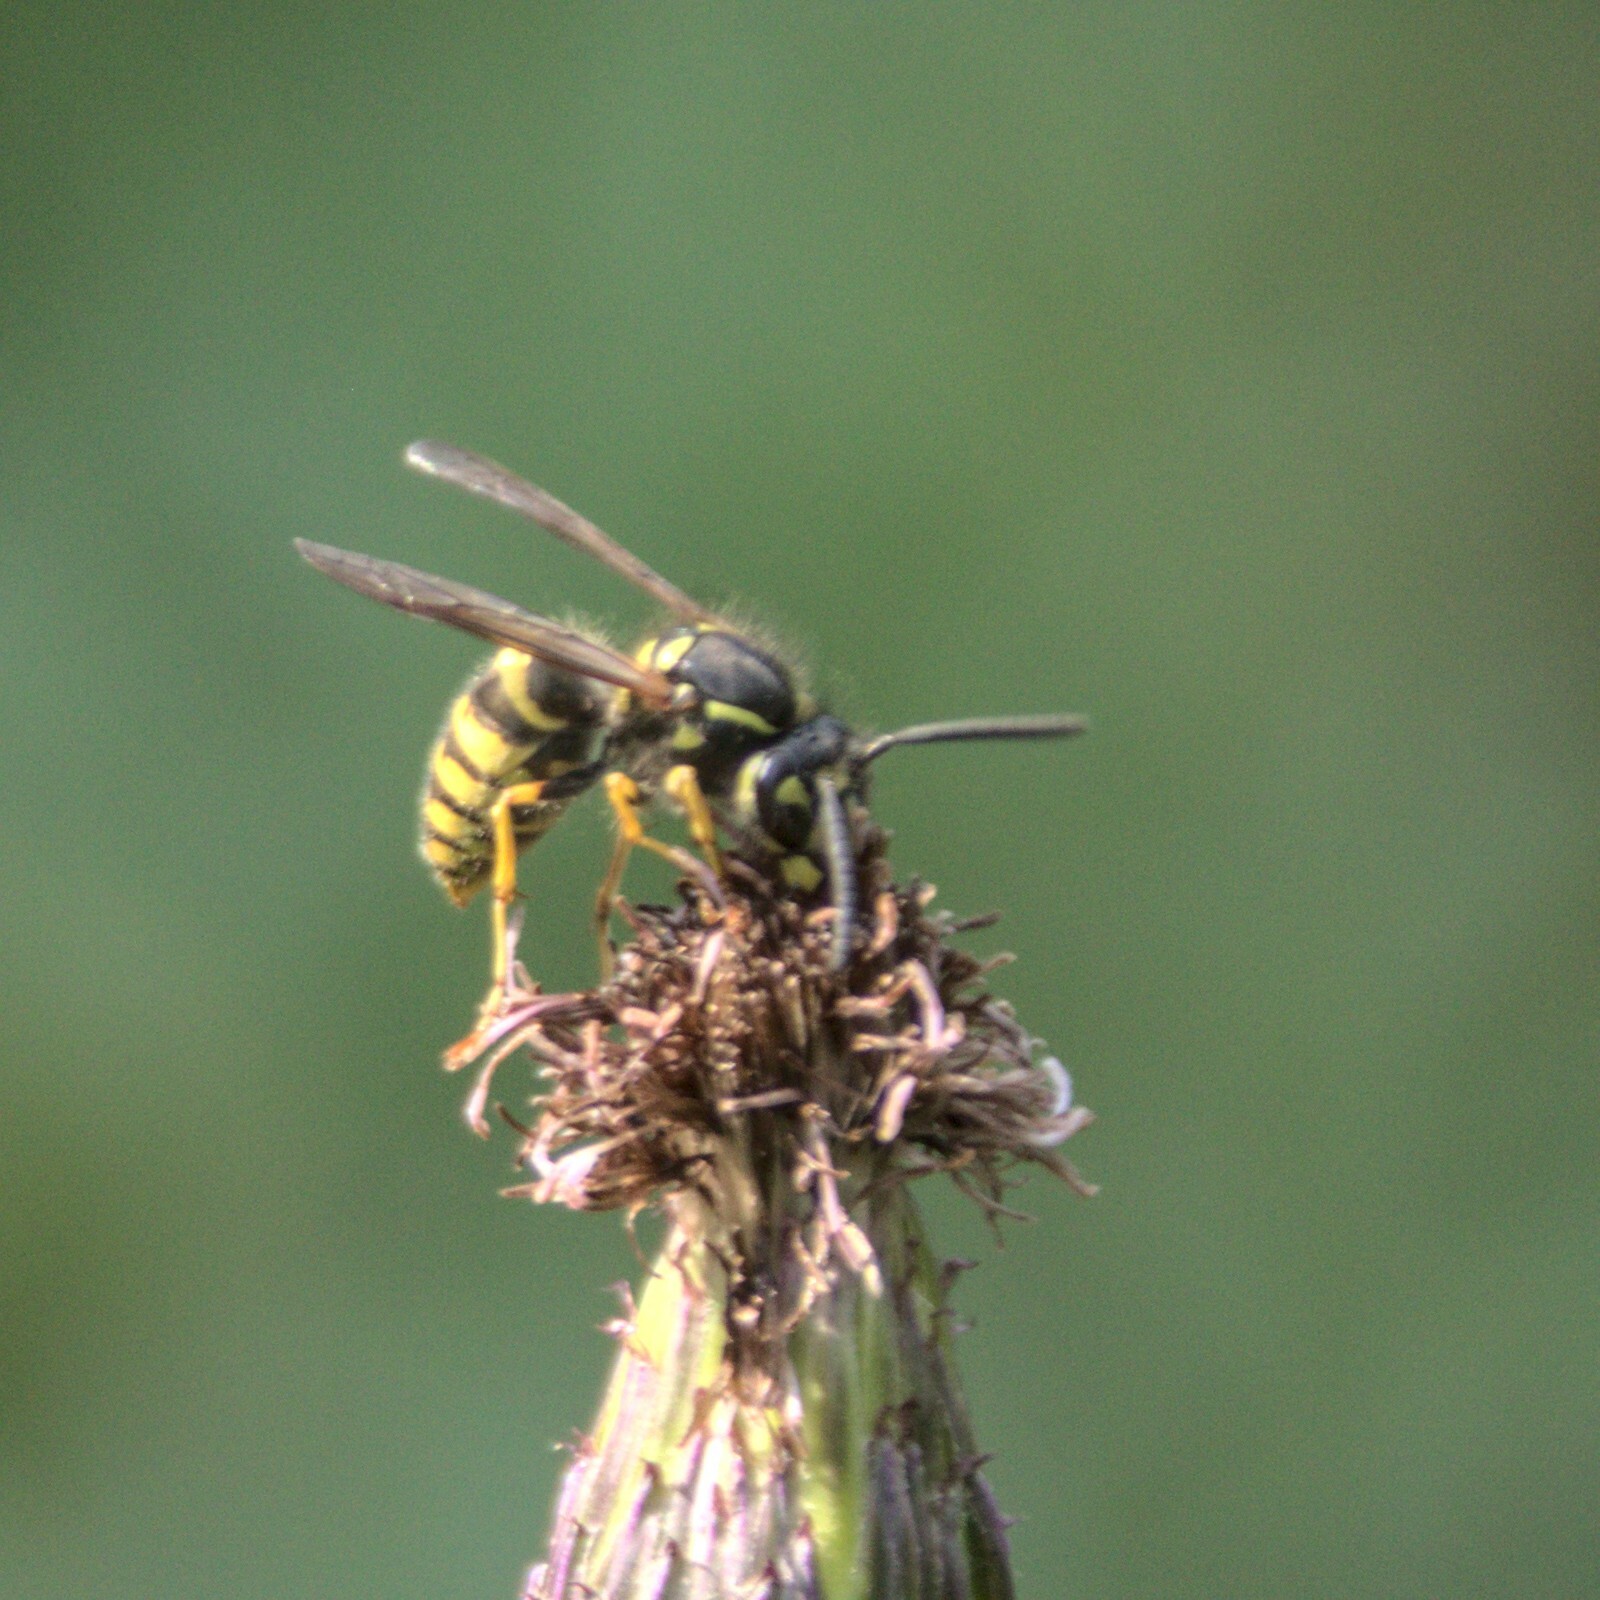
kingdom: Animalia
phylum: Arthropoda
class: Insecta
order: Hymenoptera
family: Vespidae
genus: Vespula
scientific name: Vespula vulgaris
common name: Common wasp
